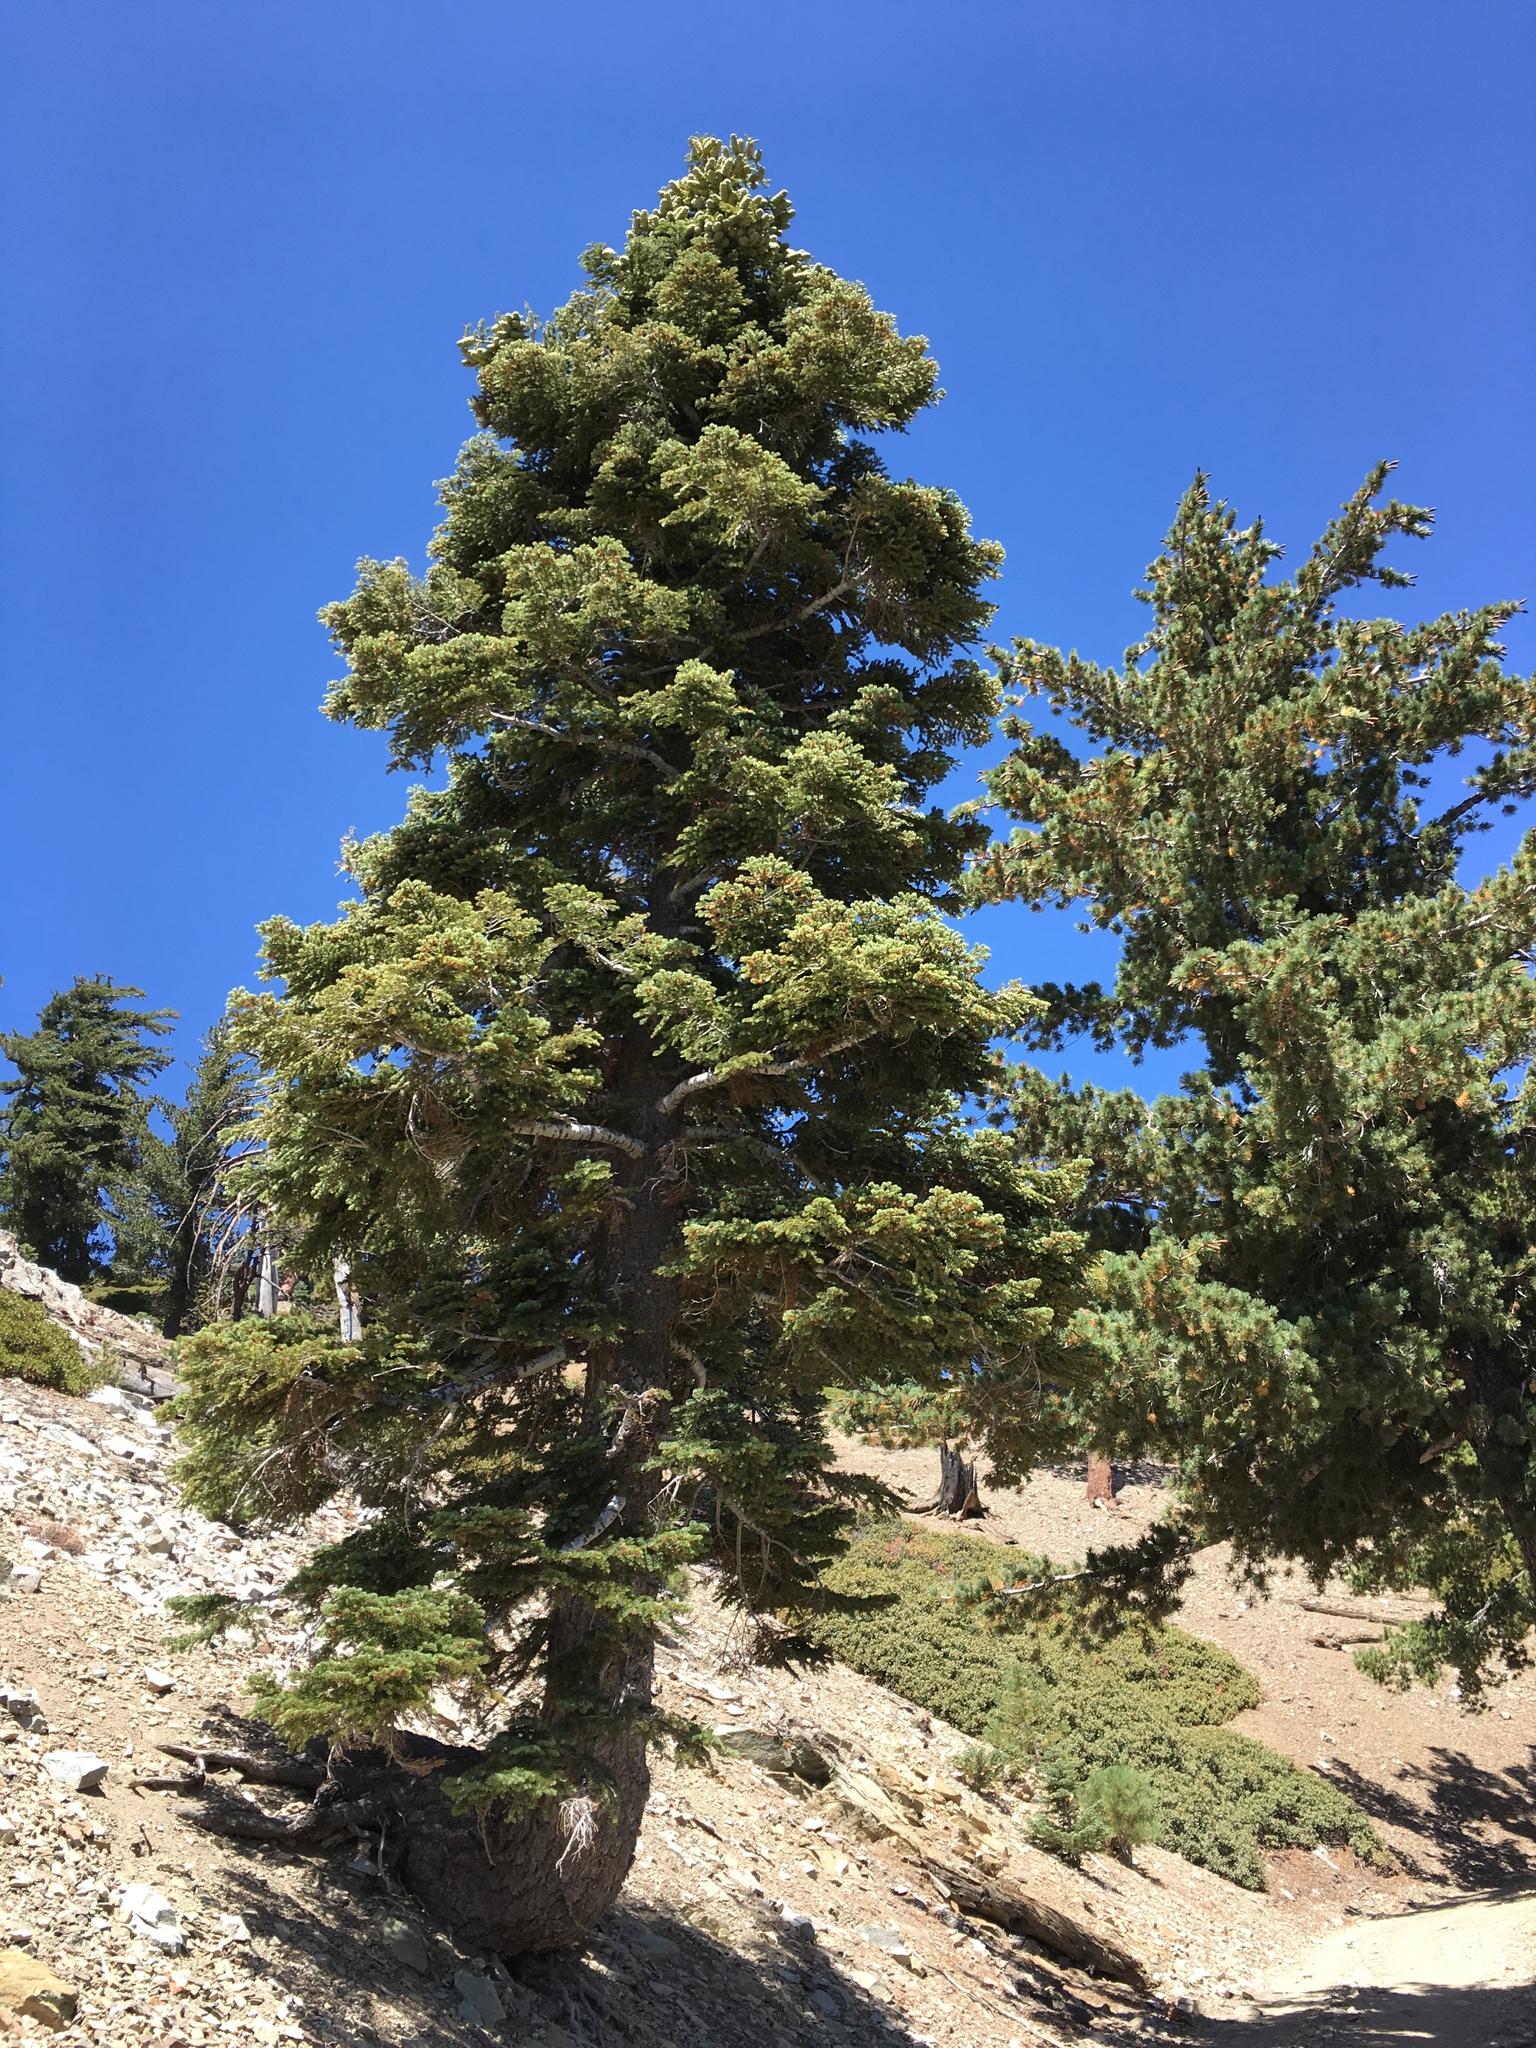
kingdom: Plantae
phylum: Tracheophyta
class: Pinopsida
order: Pinales
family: Pinaceae
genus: Abies
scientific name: Abies concolor
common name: Colorado fir
